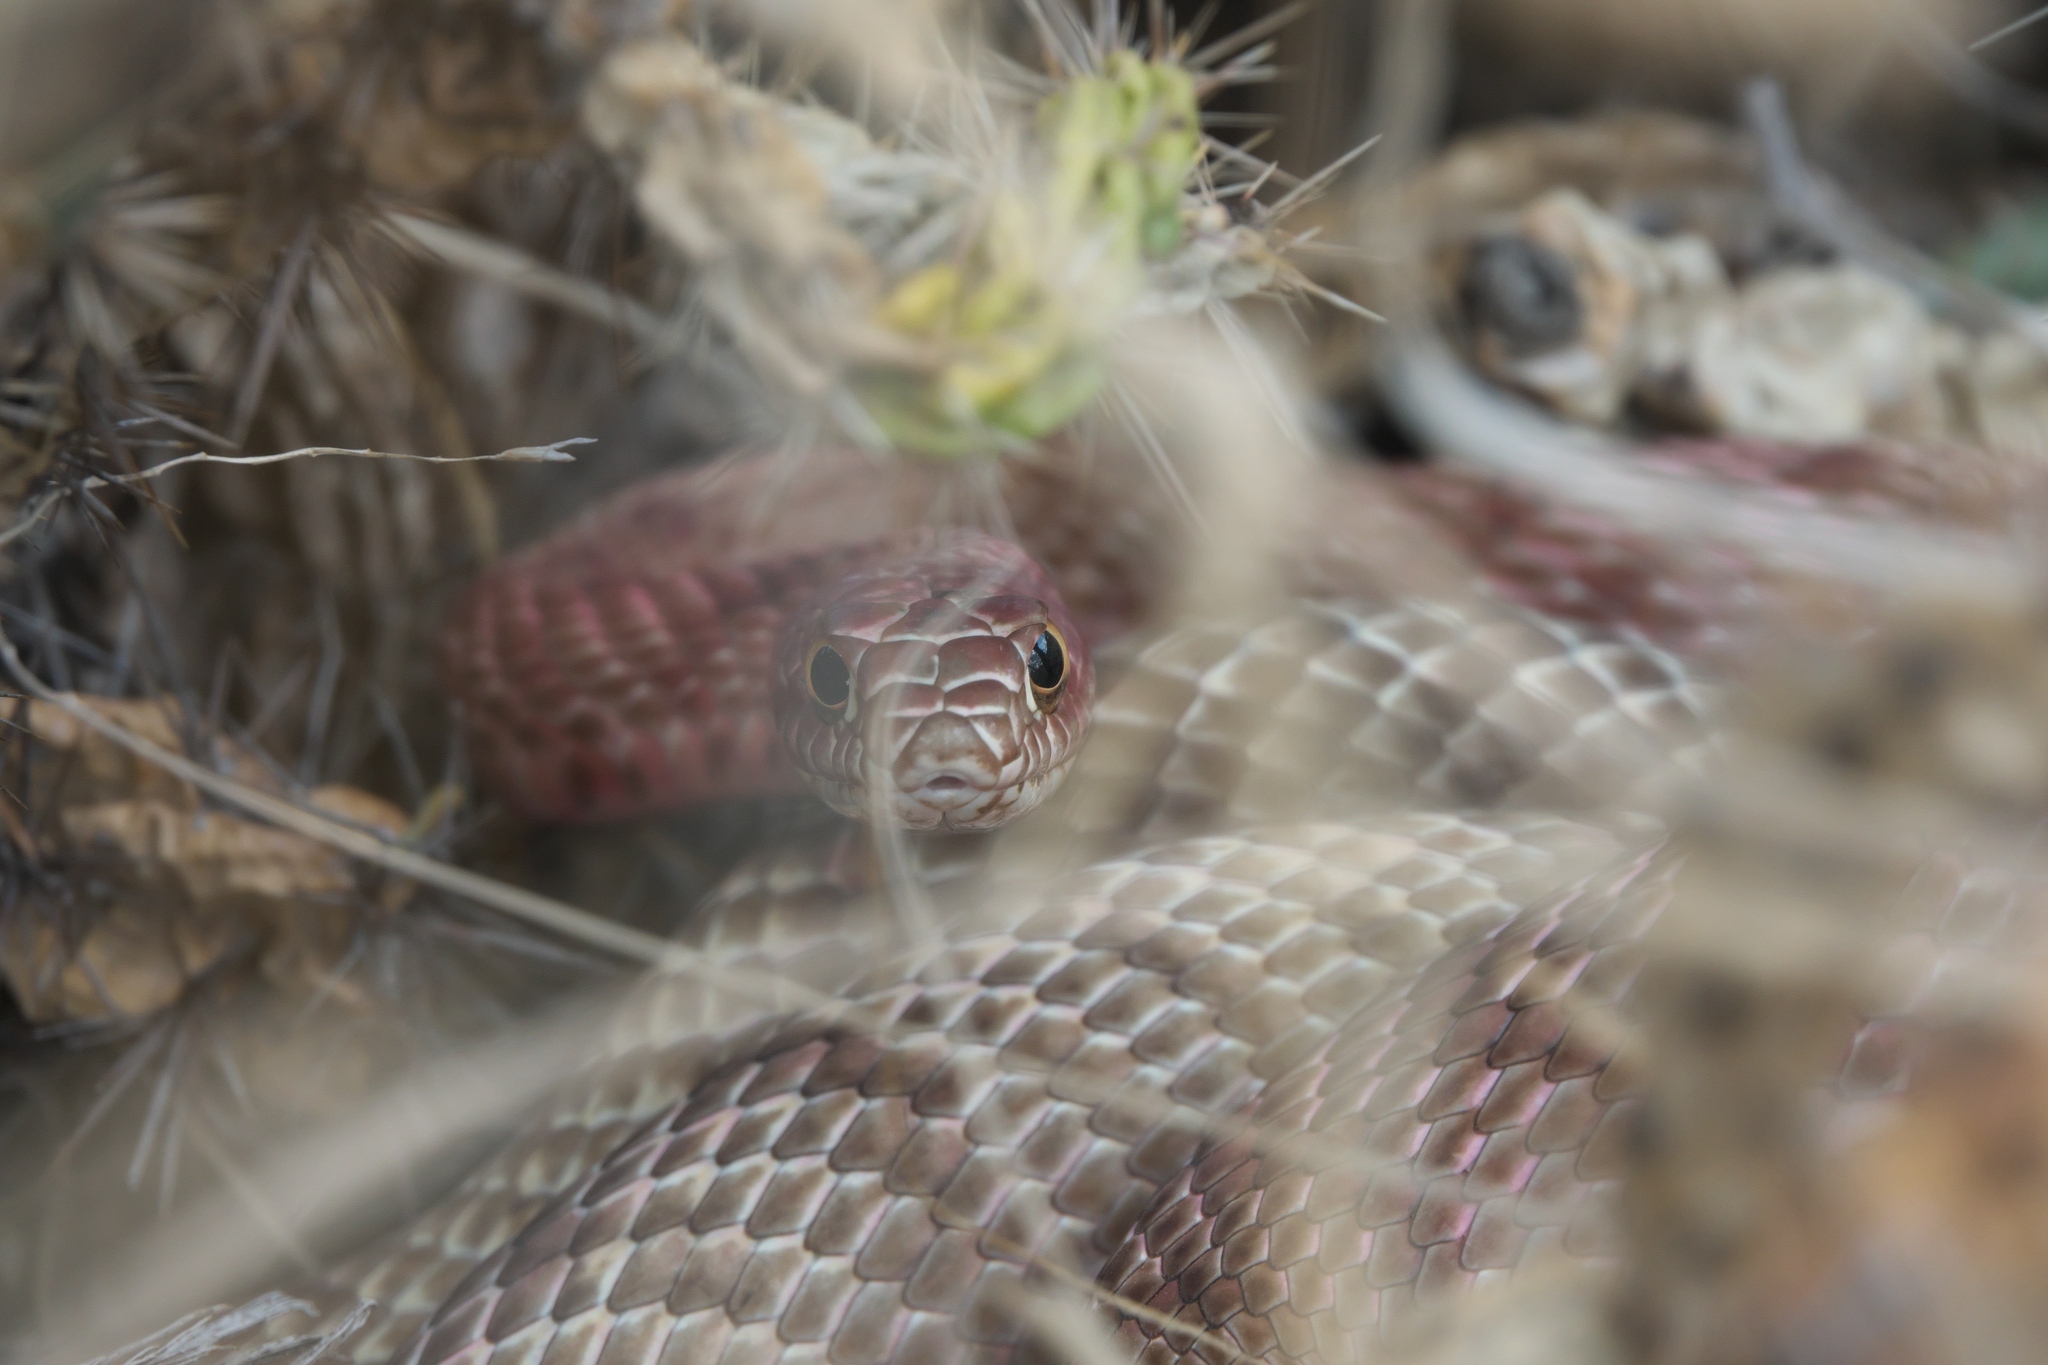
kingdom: Animalia
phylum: Chordata
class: Squamata
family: Colubridae
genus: Masticophis
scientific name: Masticophis flagellum
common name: Coachwhip
